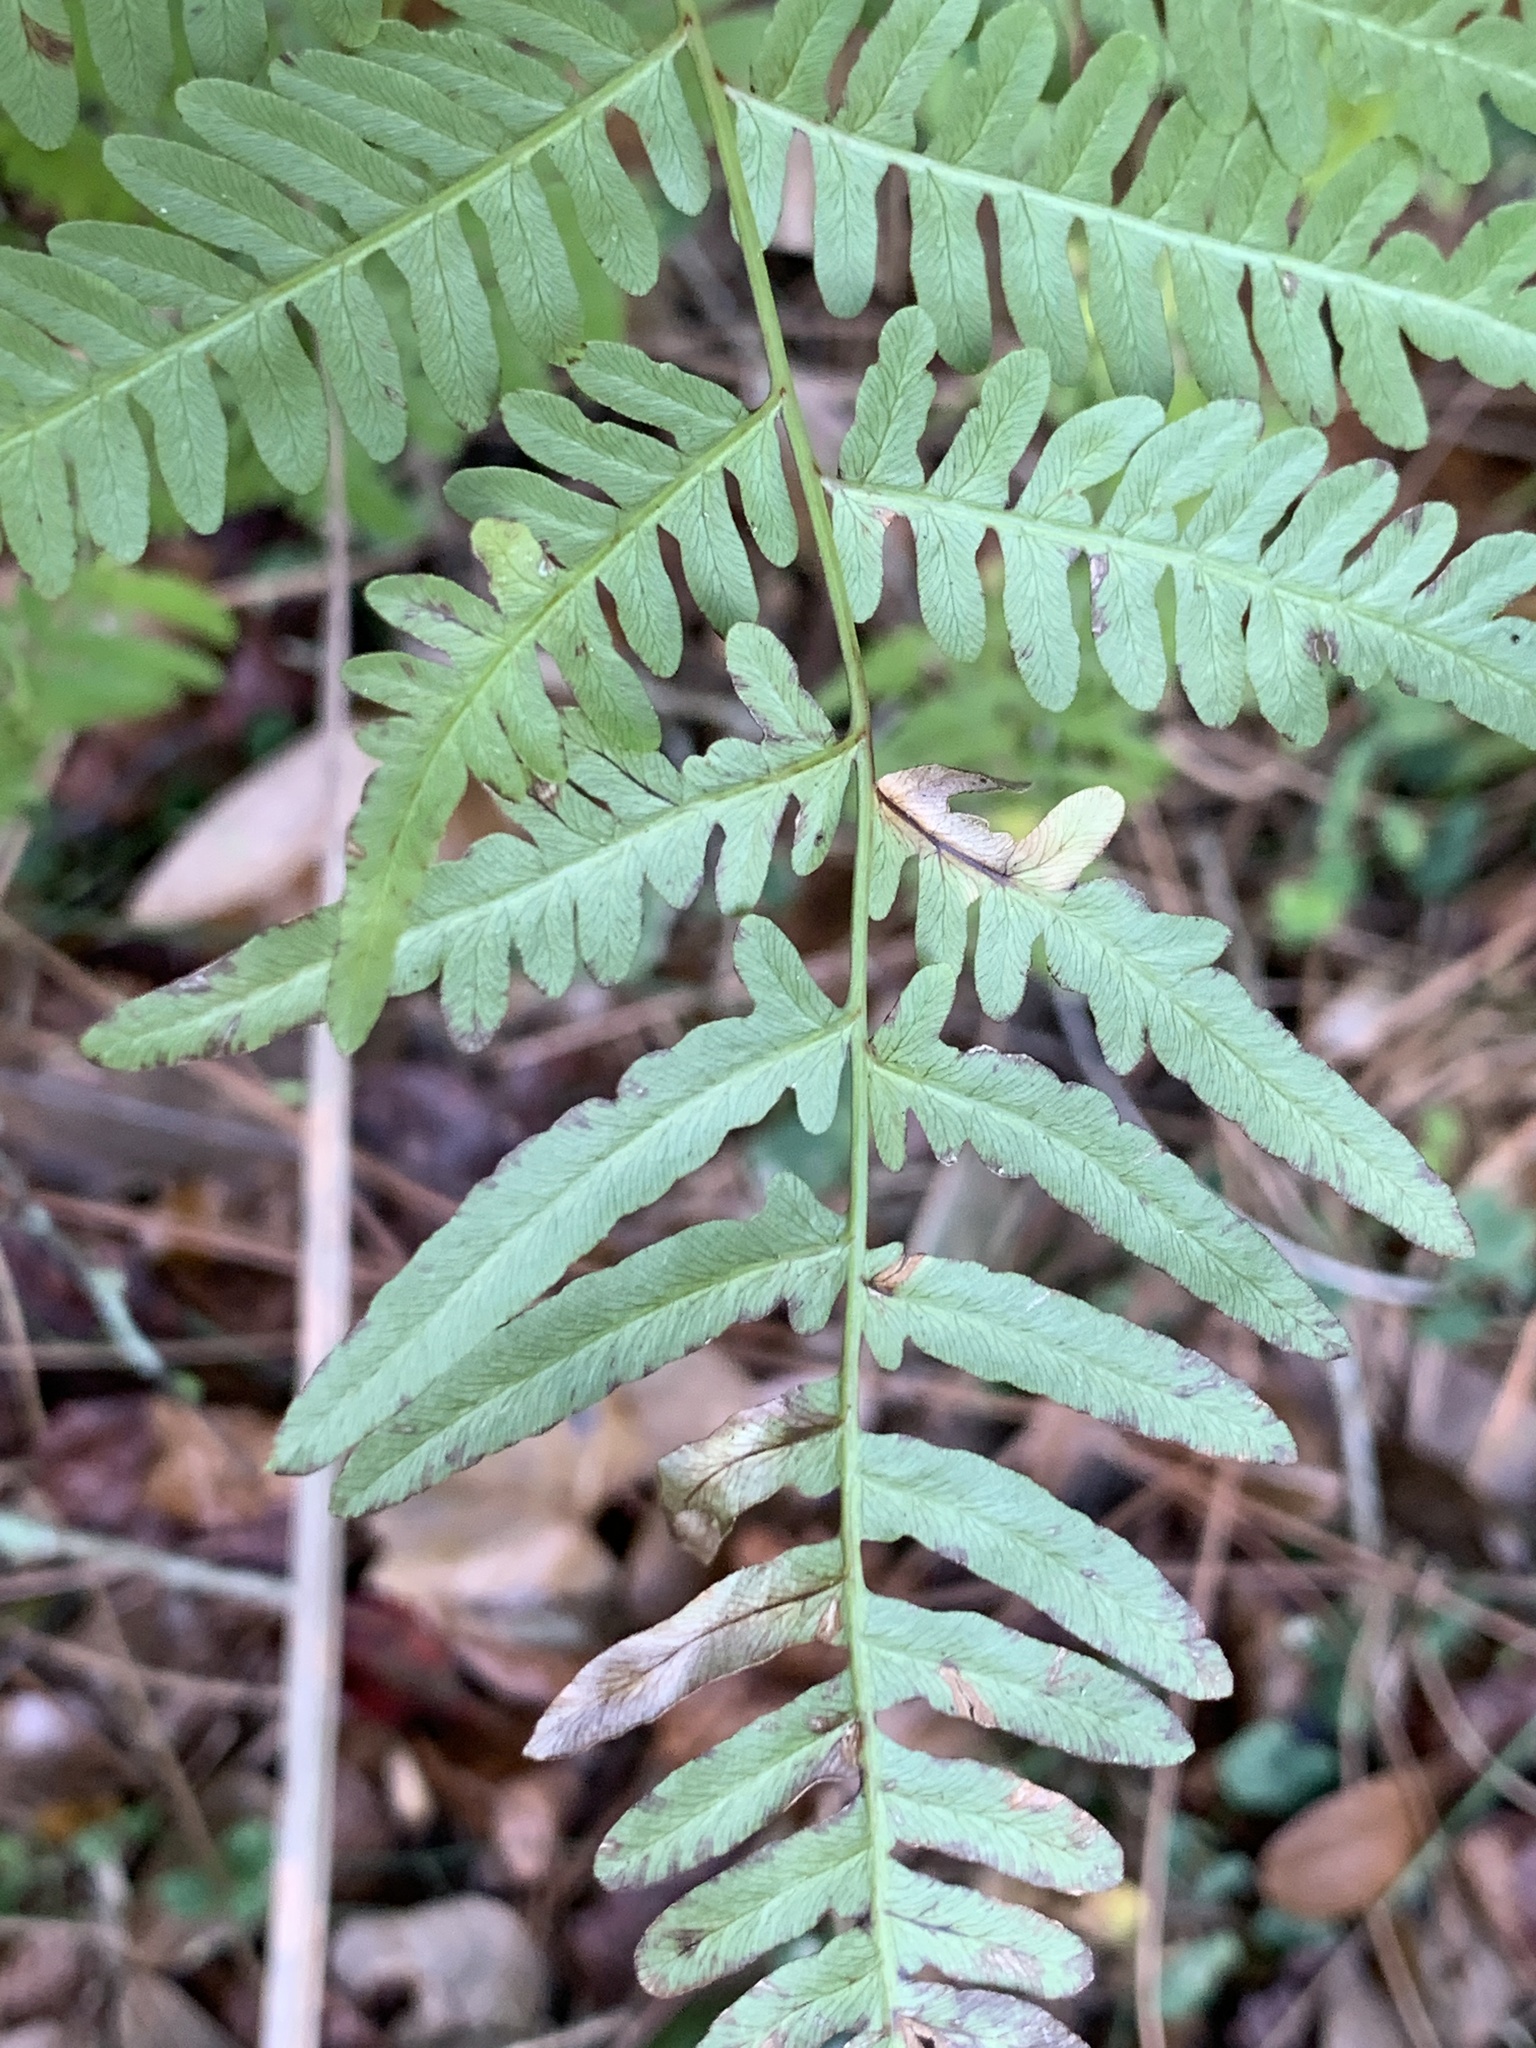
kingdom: Plantae
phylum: Tracheophyta
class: Polypodiopsida
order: Polypodiales
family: Dennstaedtiaceae
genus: Pteridium
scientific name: Pteridium aquilinum
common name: Bracken
